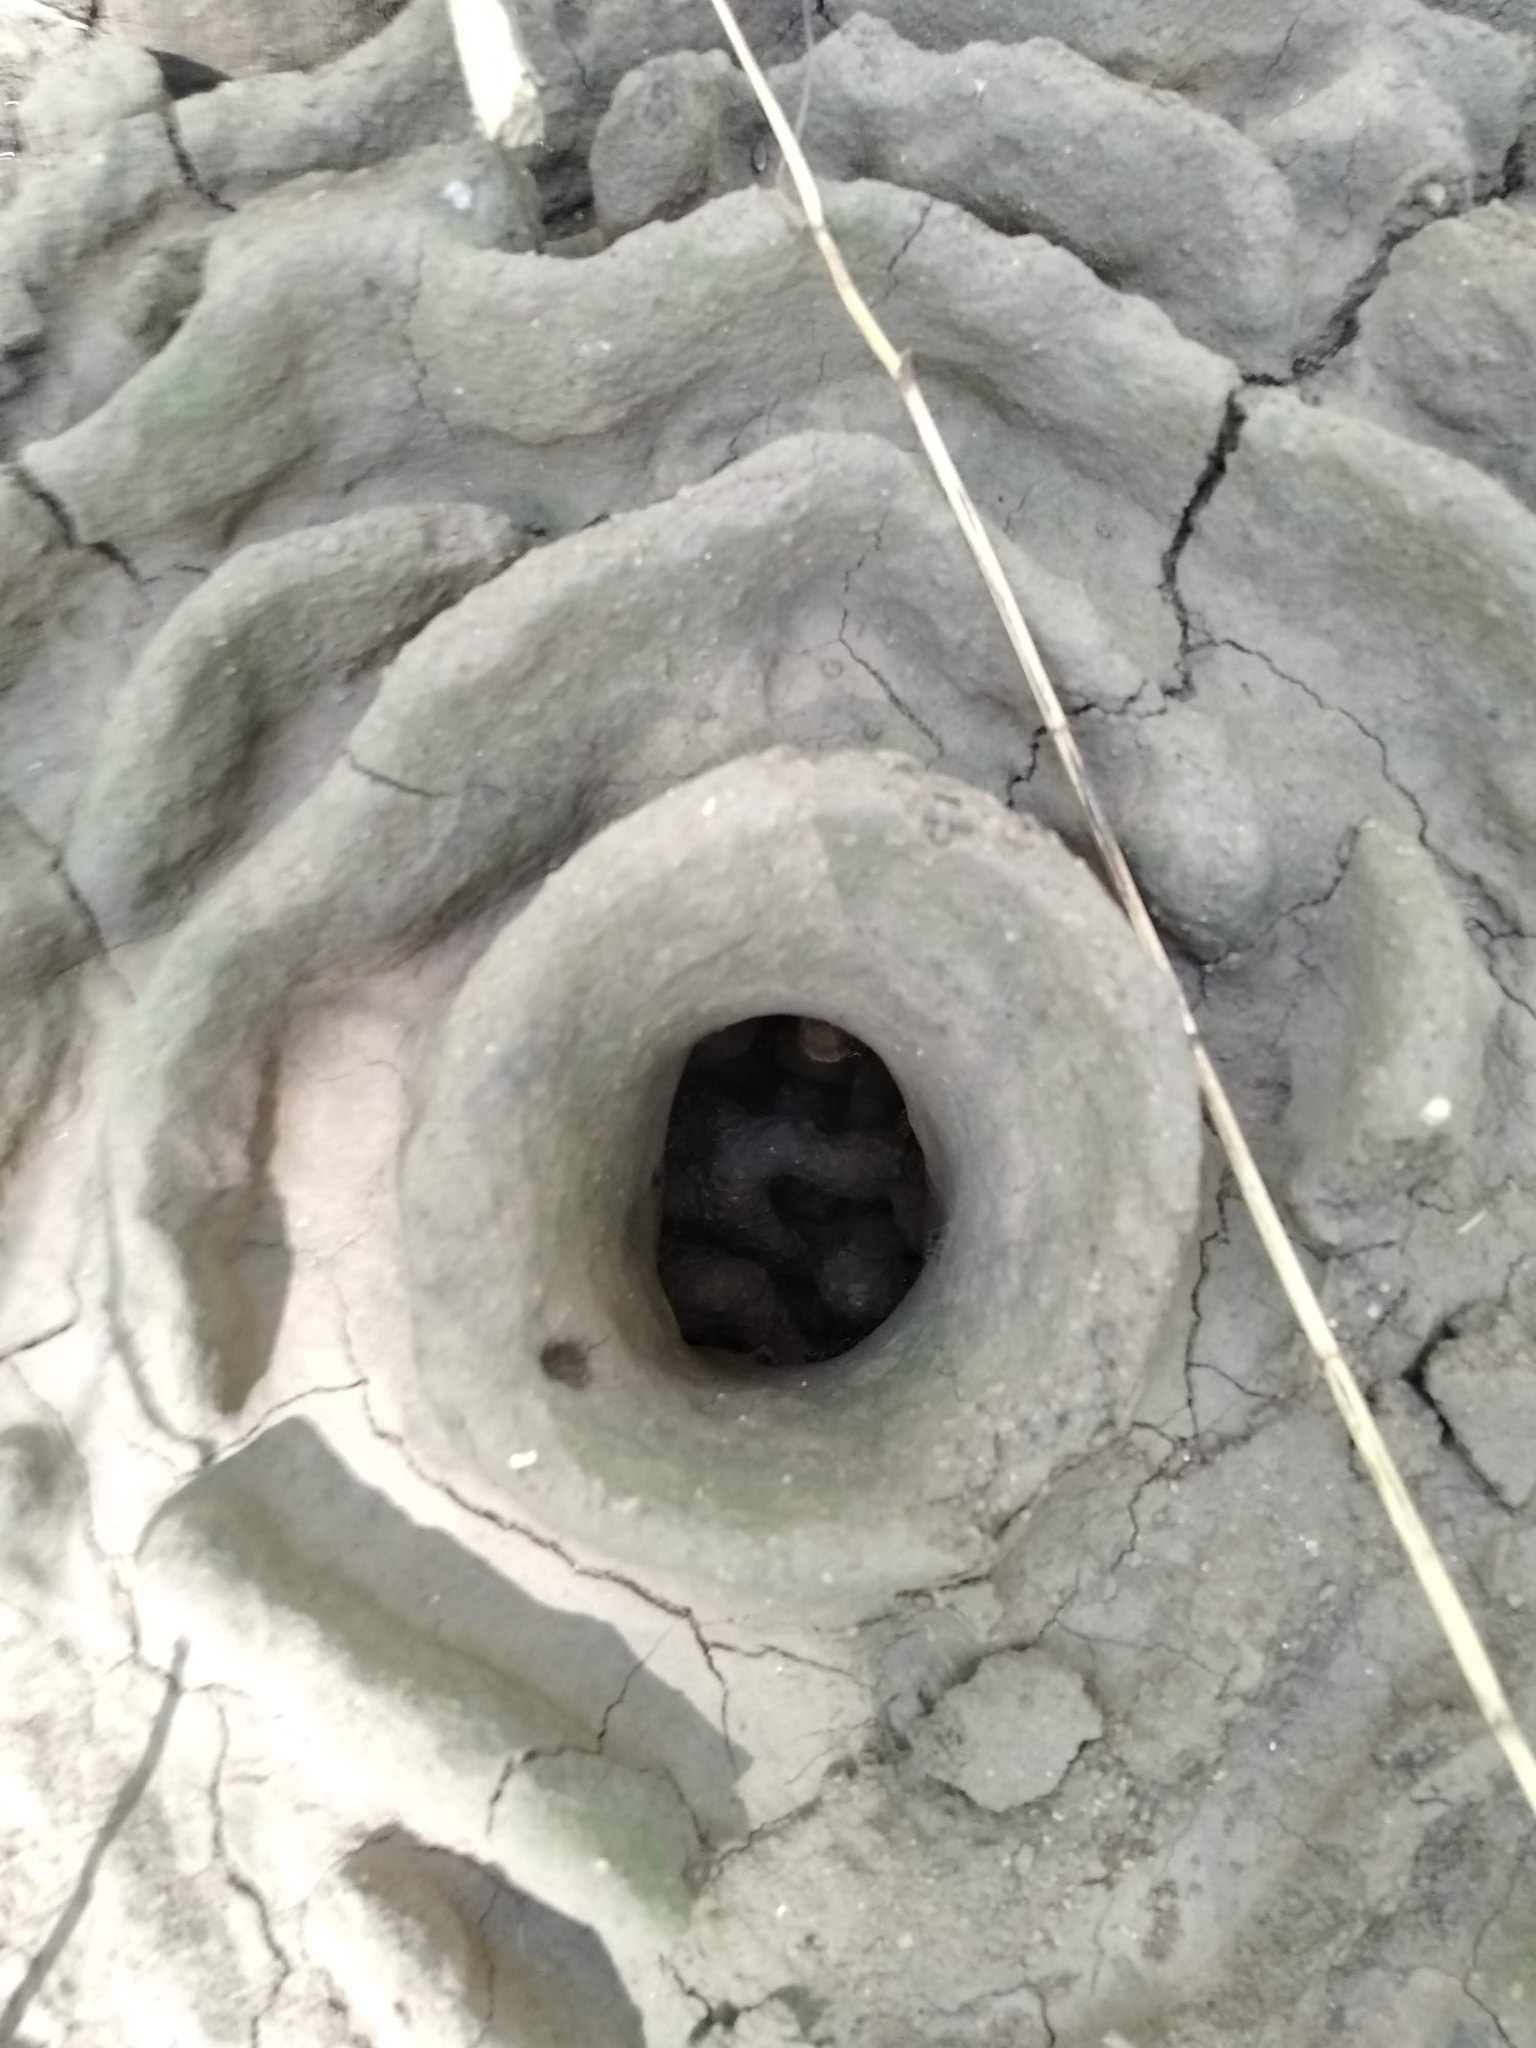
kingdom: Animalia
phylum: Arthropoda
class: Insecta
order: Hymenoptera
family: Formicidae
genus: Pheidole
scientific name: Pheidole sykesii
